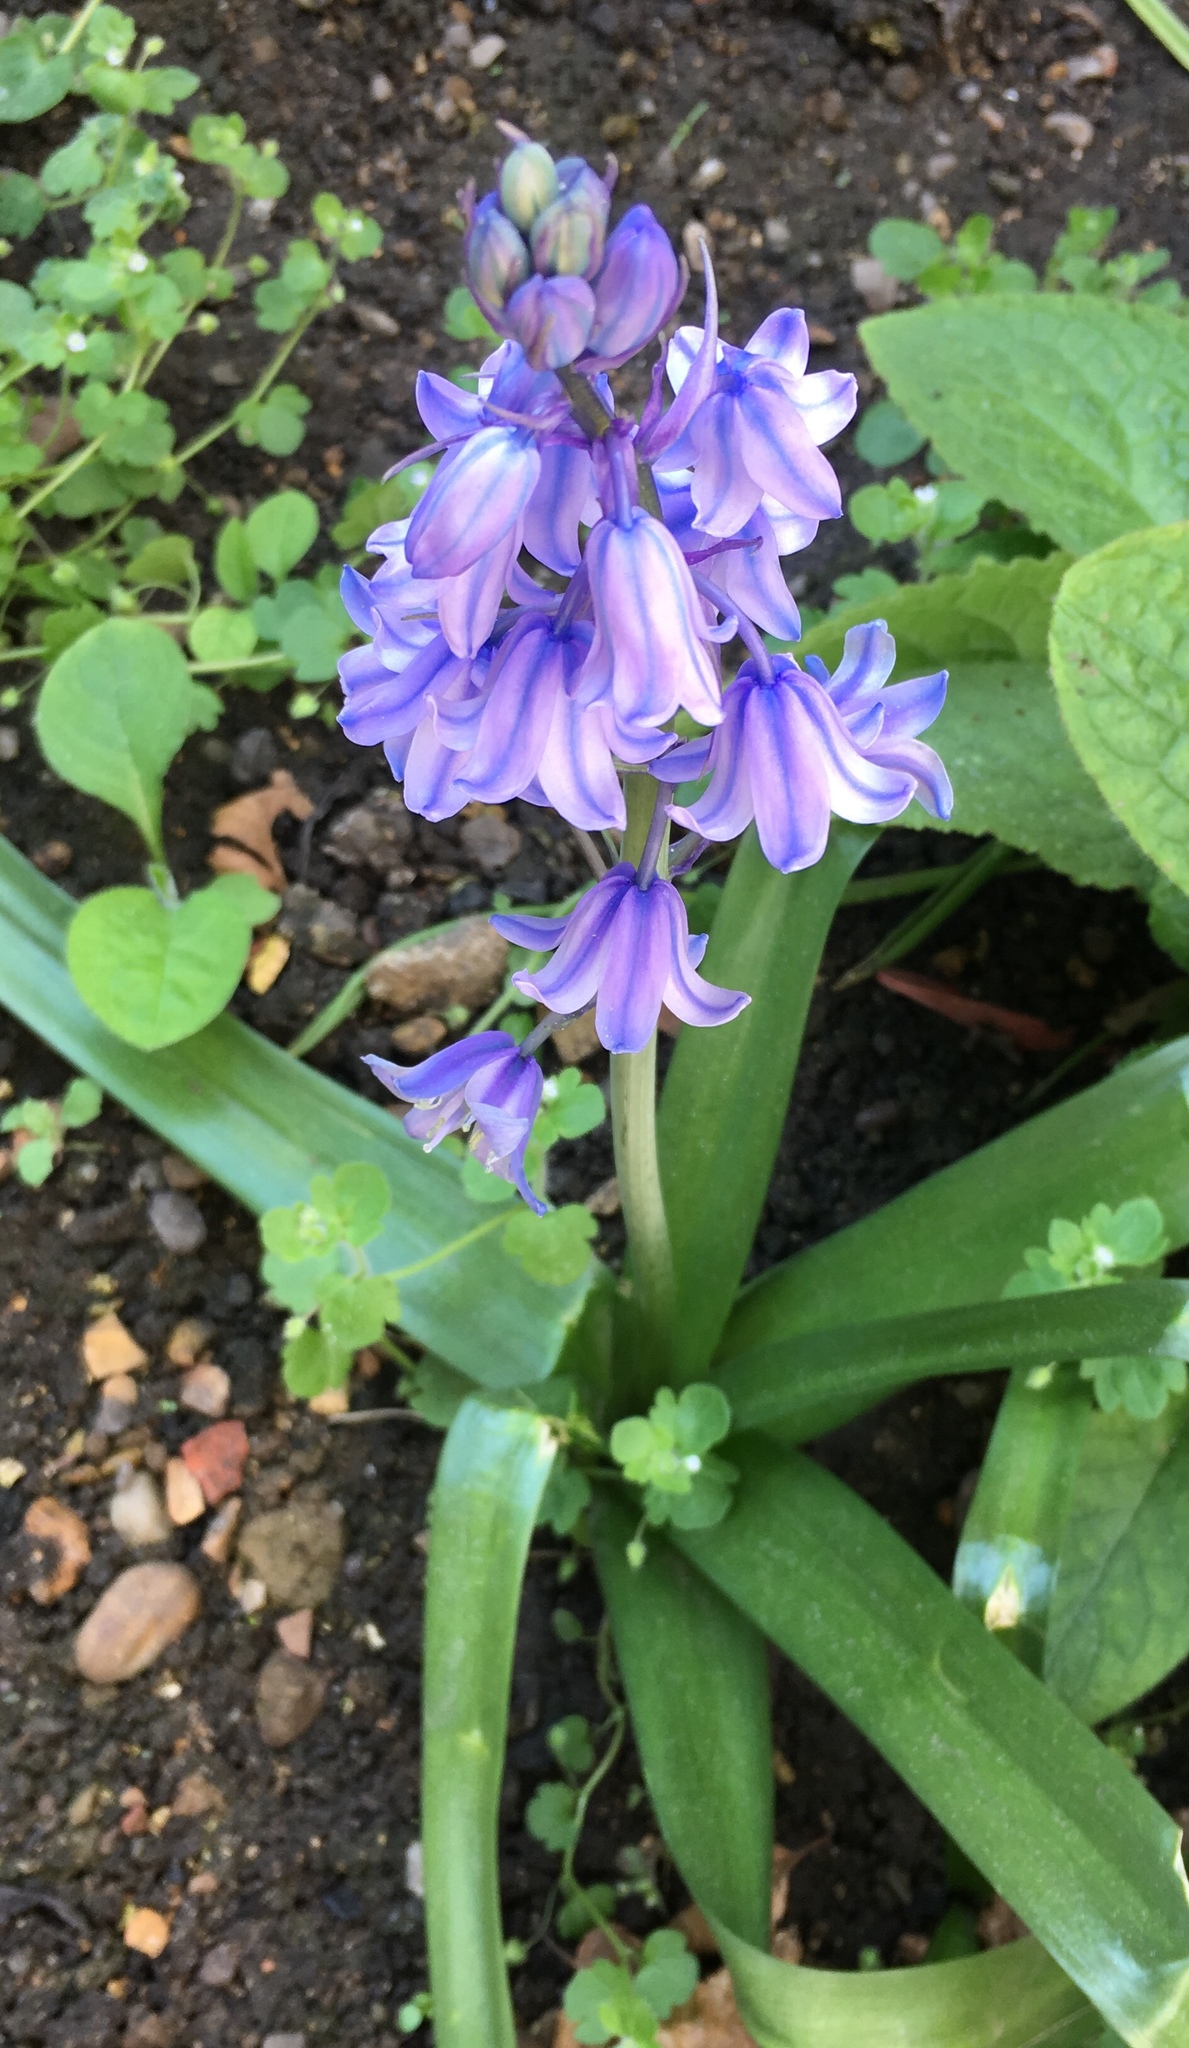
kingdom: Plantae
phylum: Tracheophyta
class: Liliopsida
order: Asparagales
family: Asparagaceae
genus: Hyacinthoides
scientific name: Hyacinthoides non-scripta
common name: Bluebell
